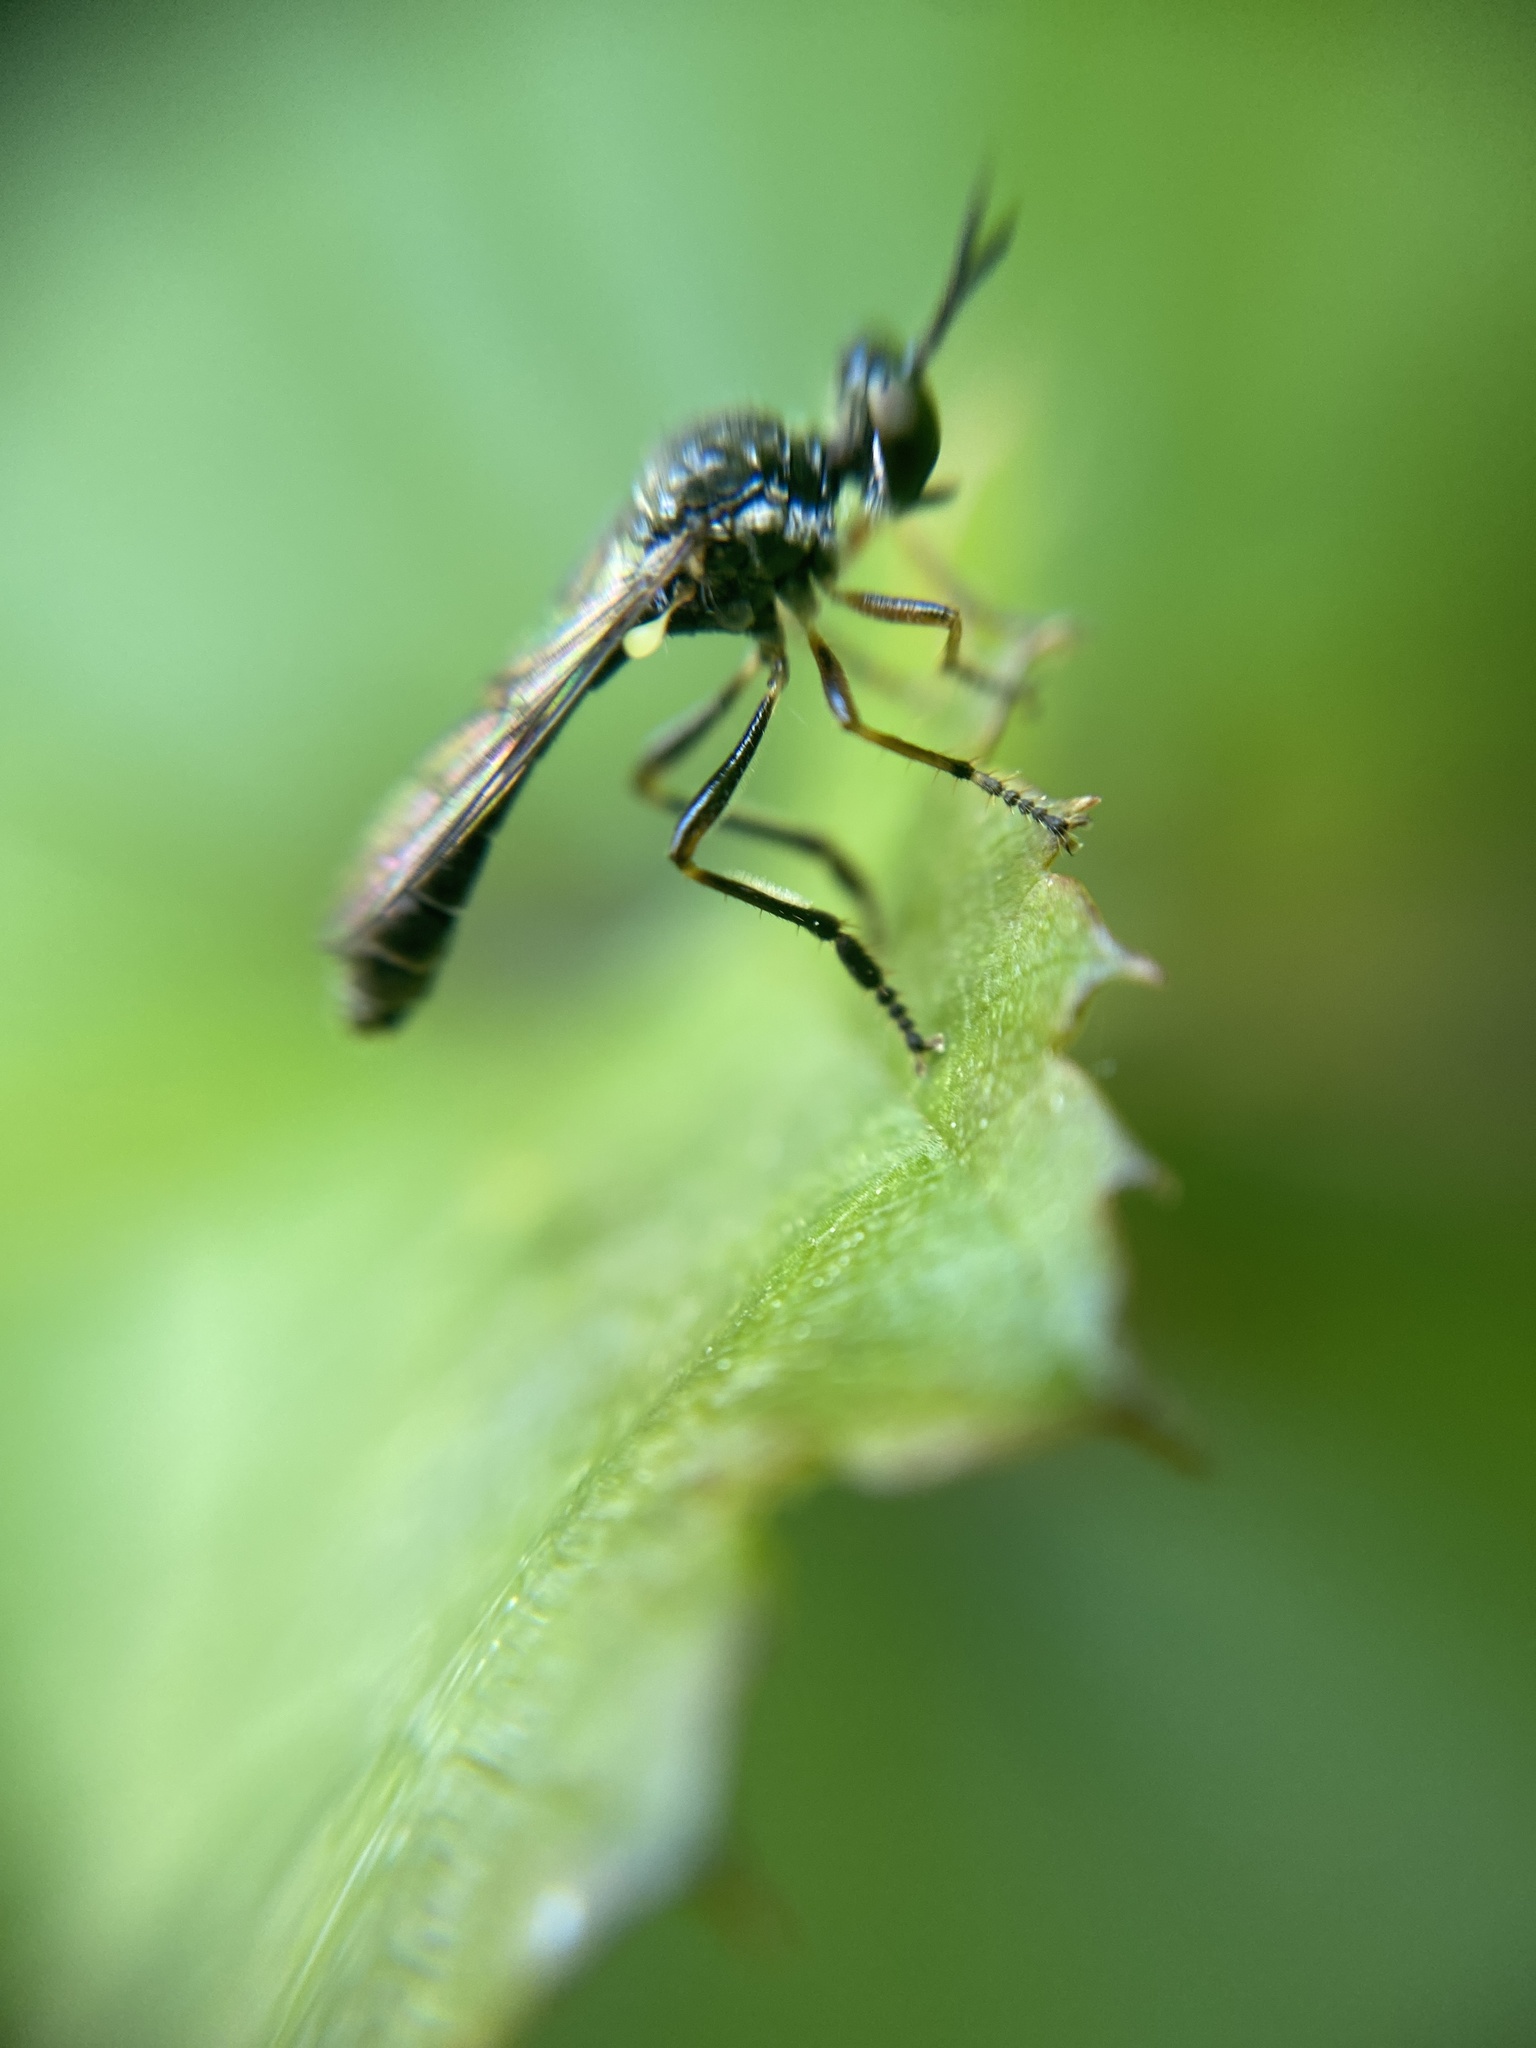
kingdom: Animalia
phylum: Arthropoda
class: Insecta
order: Diptera
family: Asilidae
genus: Dioctria
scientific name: Dioctria hyalipennis
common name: Stripe-legged robberfly
